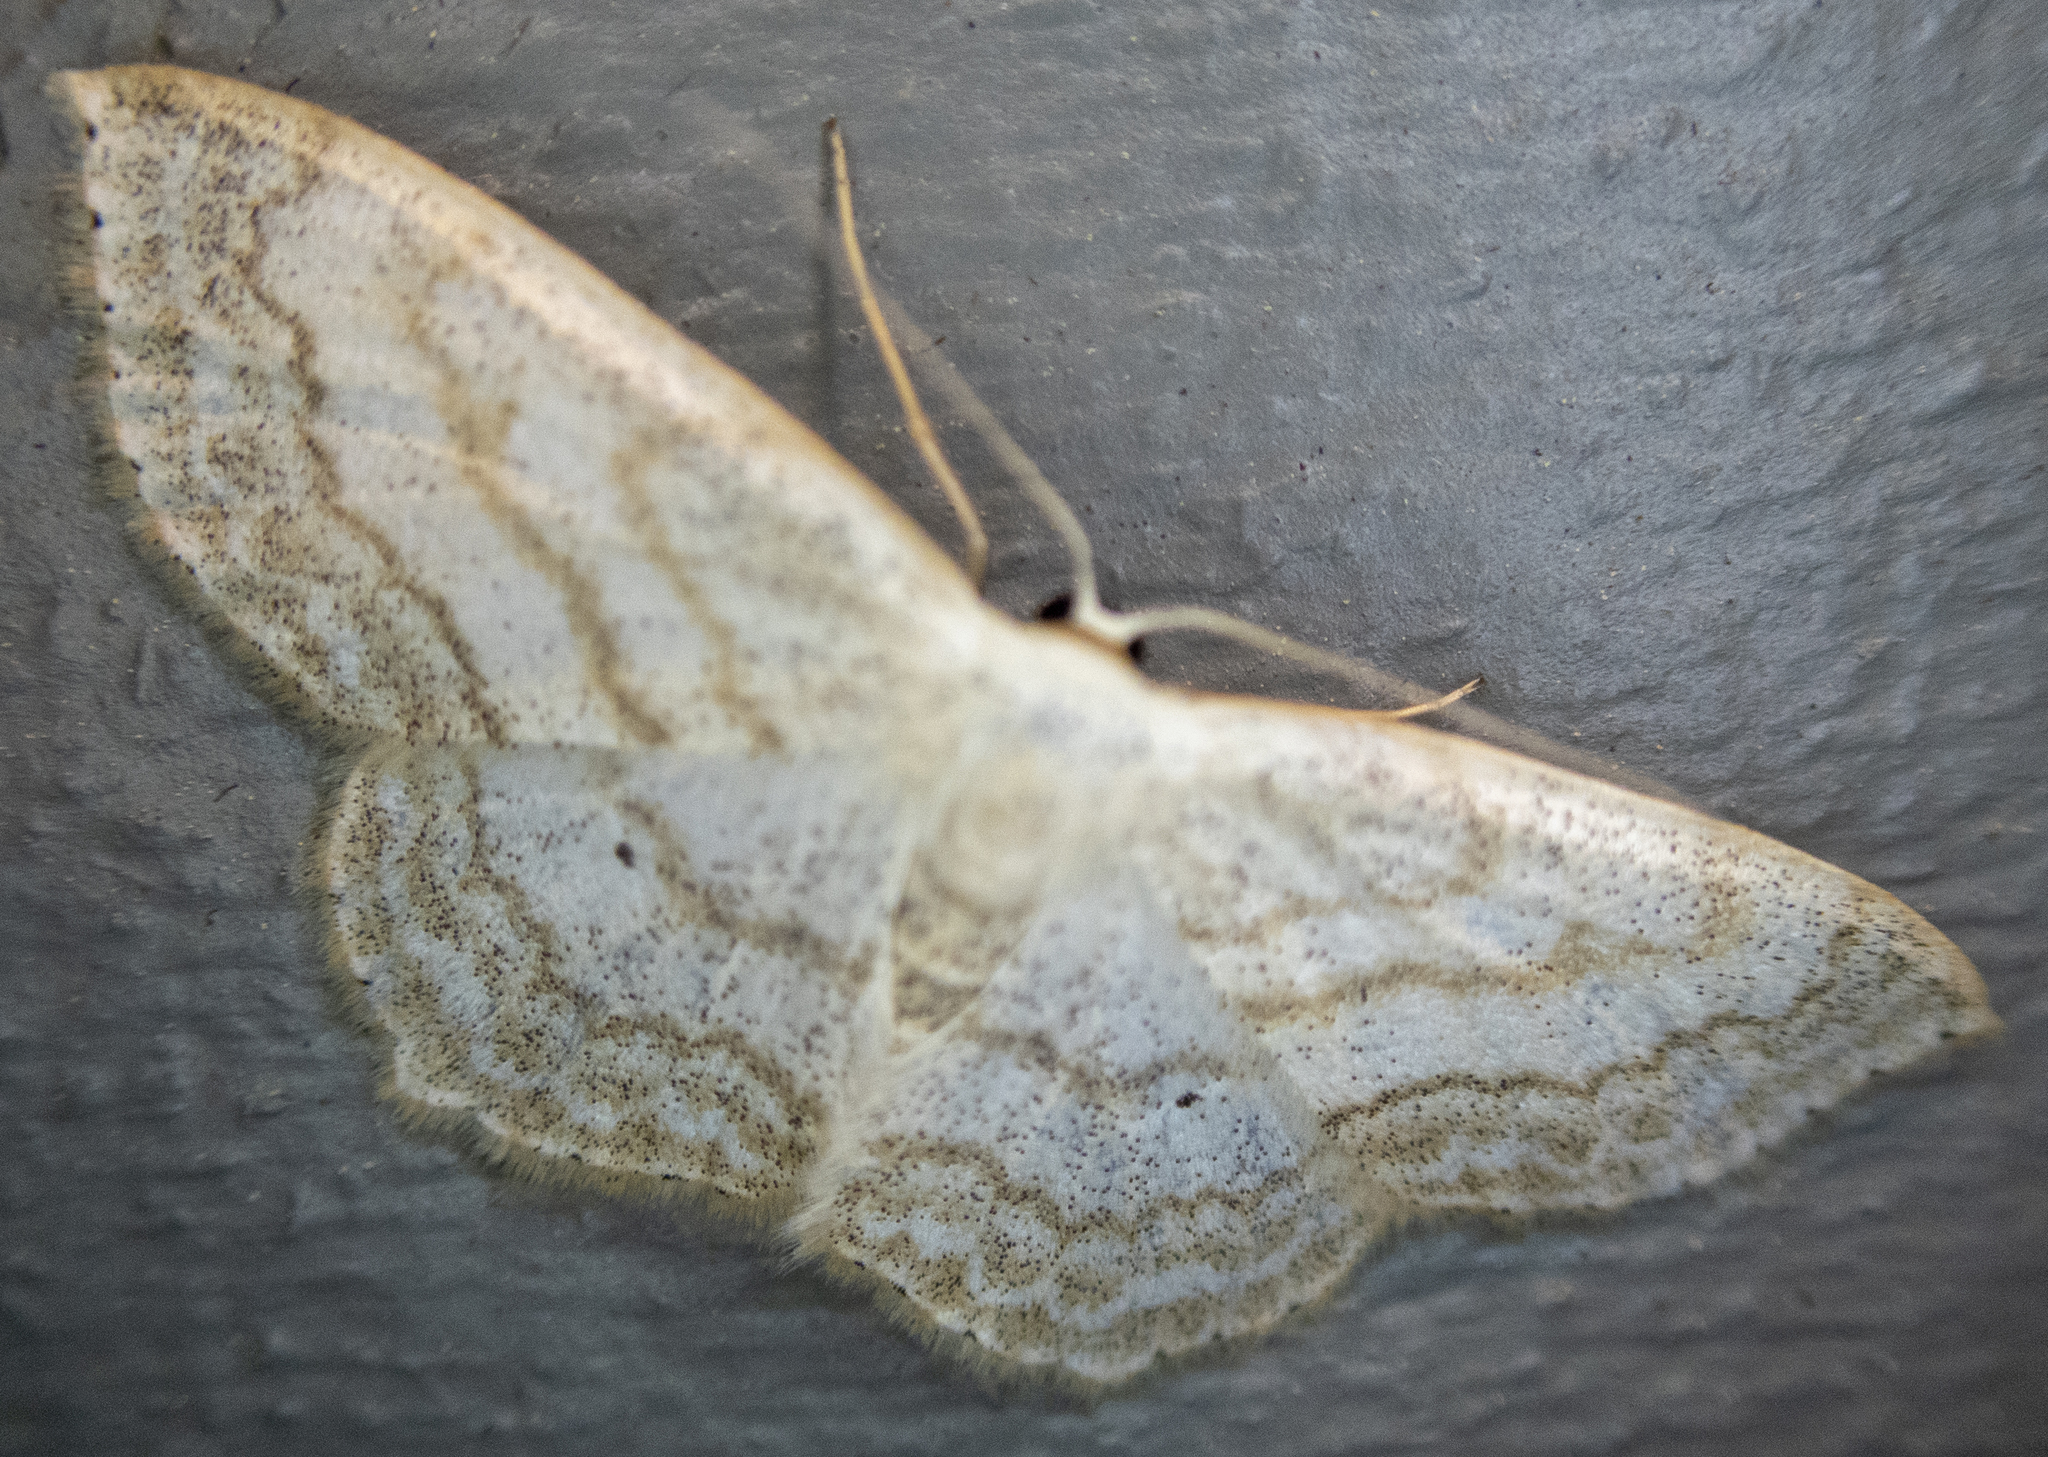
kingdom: Animalia
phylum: Arthropoda
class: Insecta
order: Lepidoptera
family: Geometridae
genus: Scopula
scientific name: Scopula limboundata
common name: Large lace border
